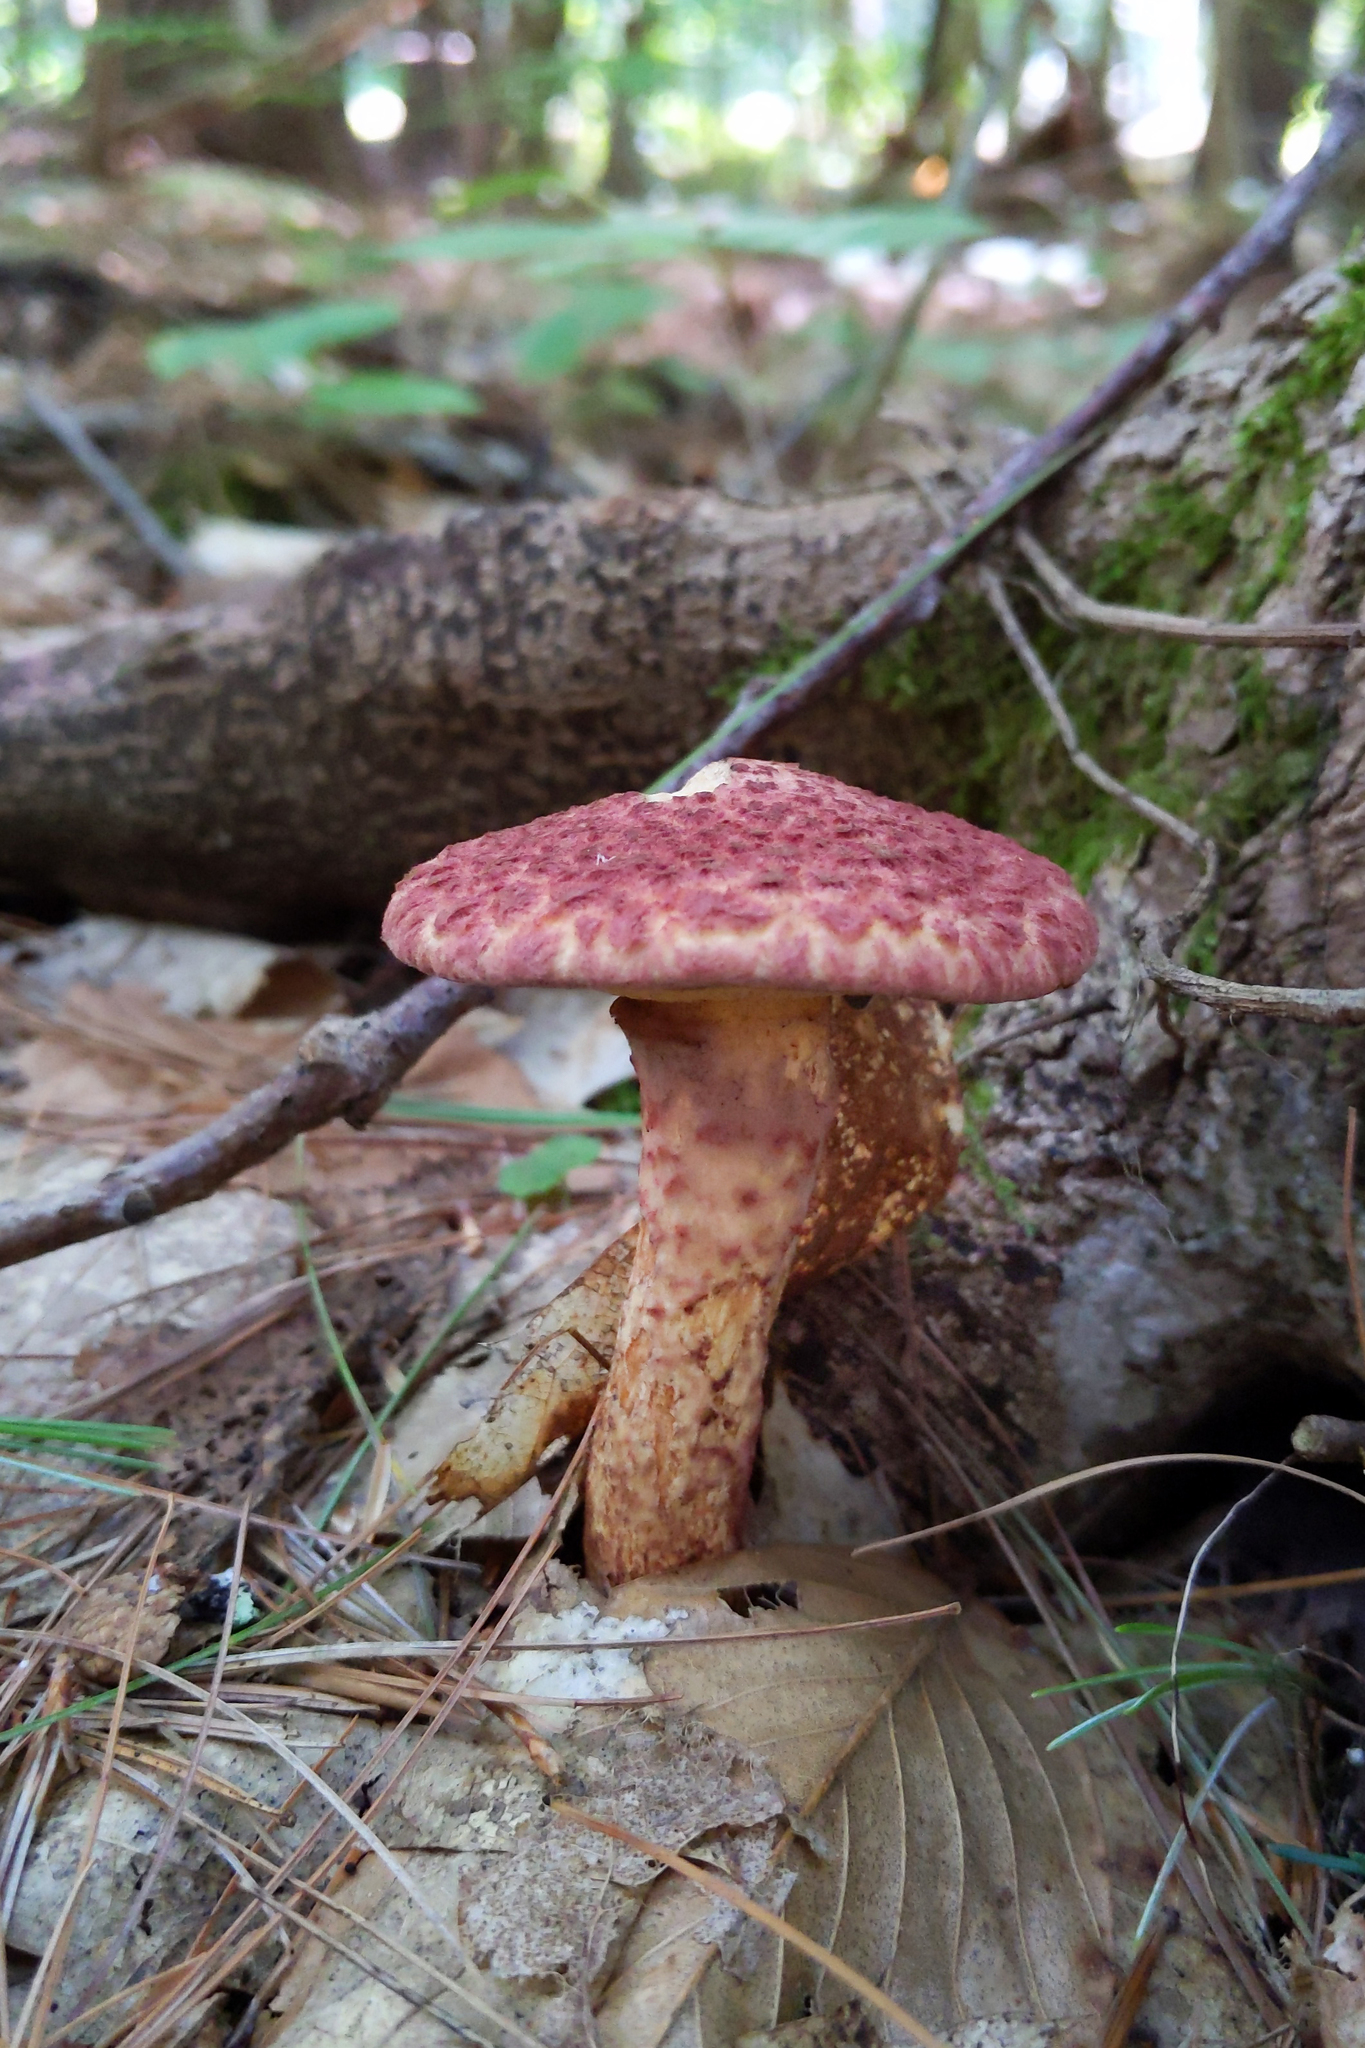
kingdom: Fungi
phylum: Basidiomycota
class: Agaricomycetes
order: Boletales
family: Suillaceae
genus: Suillus
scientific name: Suillus spraguei
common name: Painted suillus
